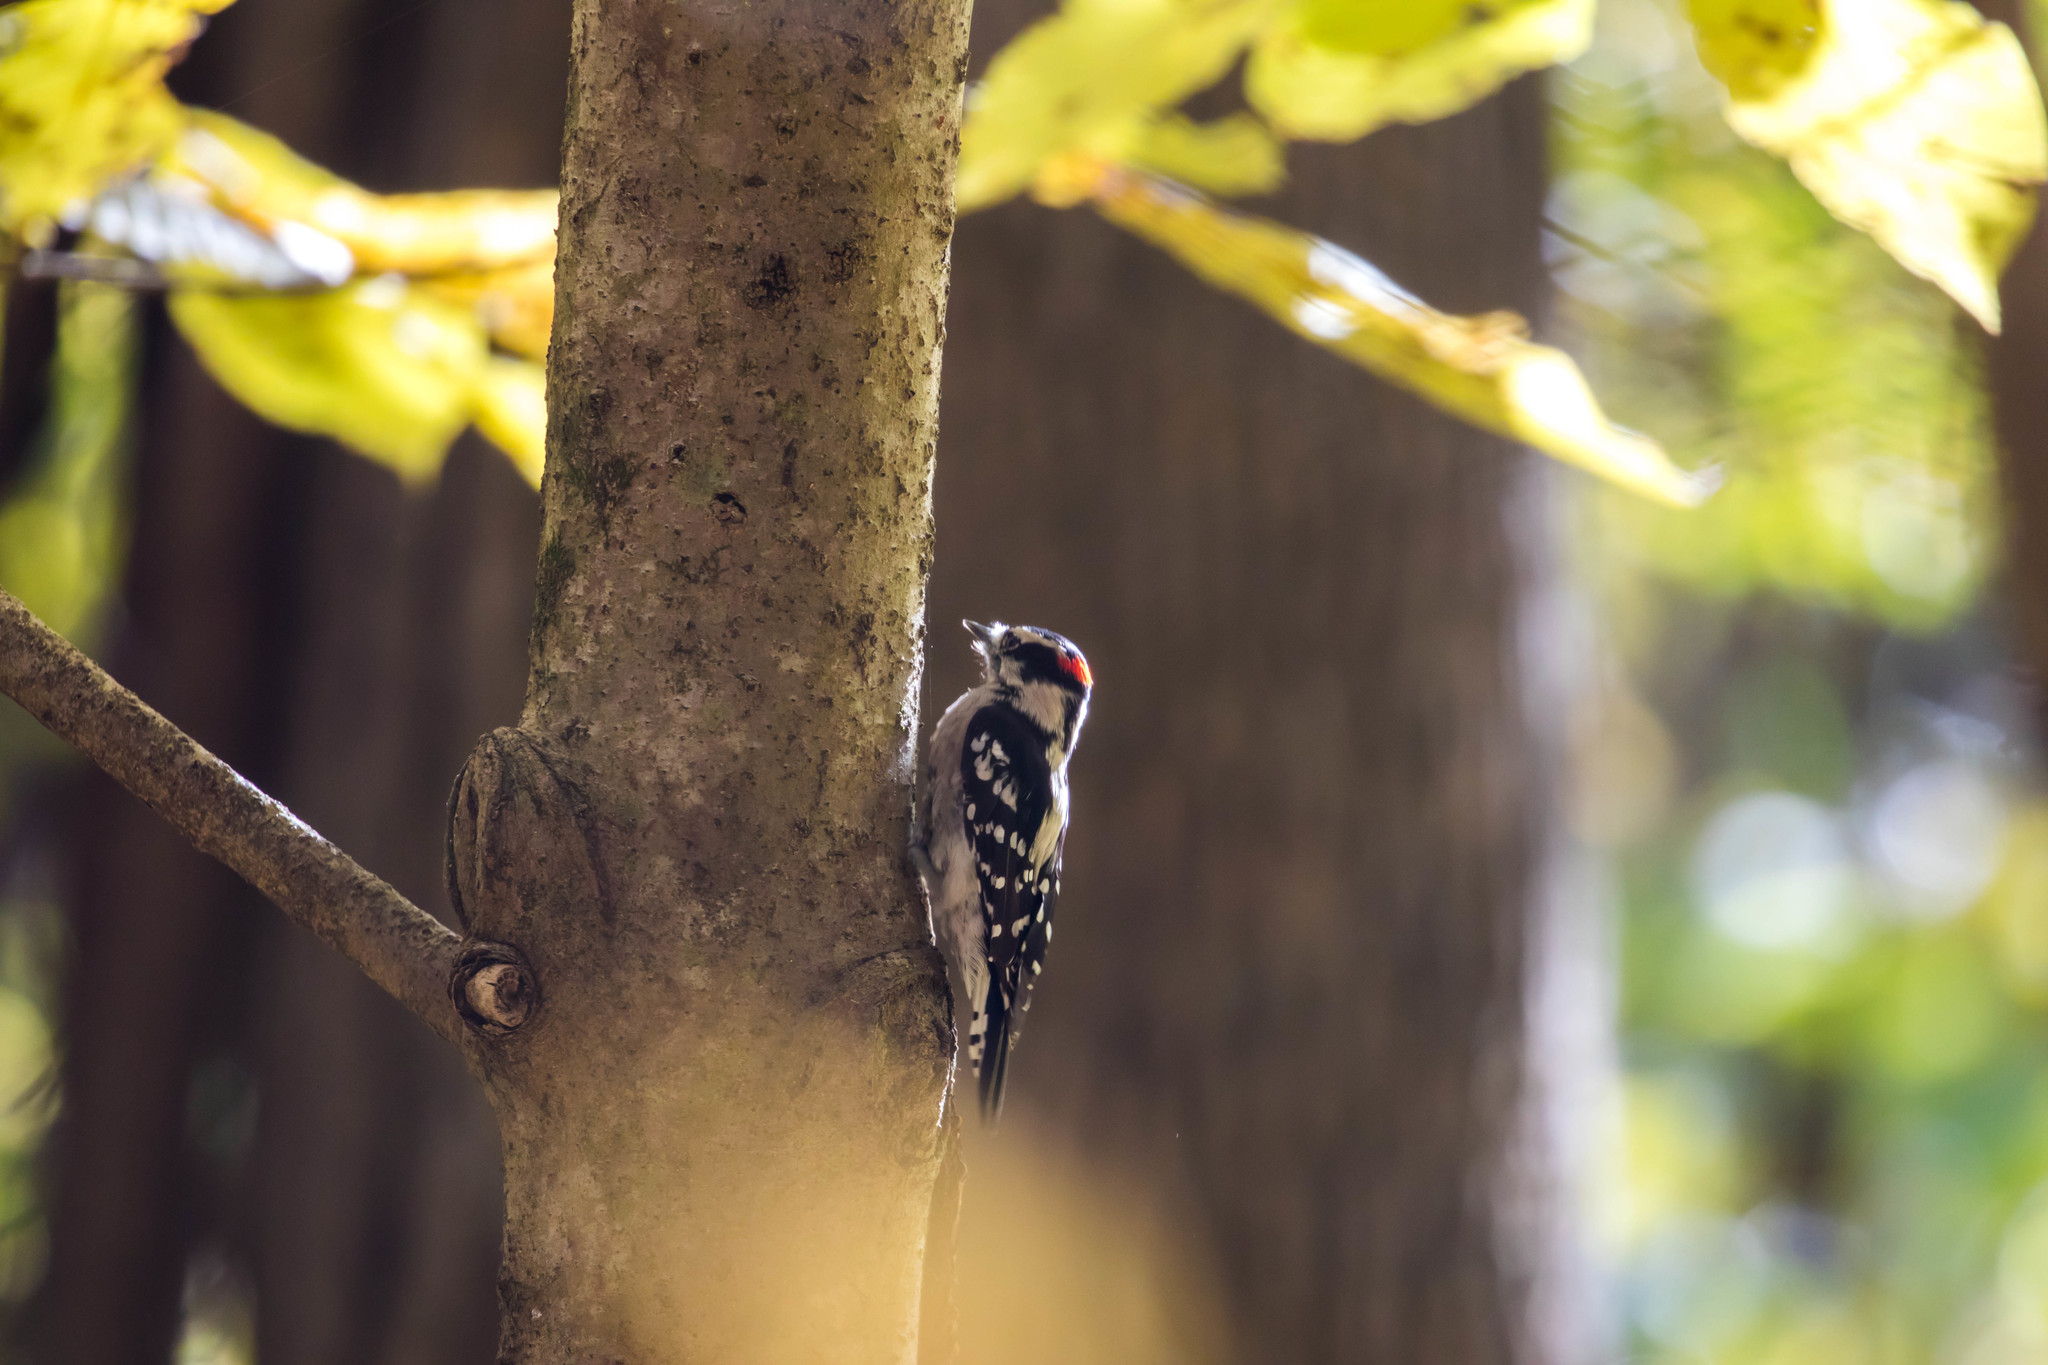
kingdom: Animalia
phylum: Chordata
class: Aves
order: Piciformes
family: Picidae
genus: Dryobates
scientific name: Dryobates pubescens
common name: Downy woodpecker
